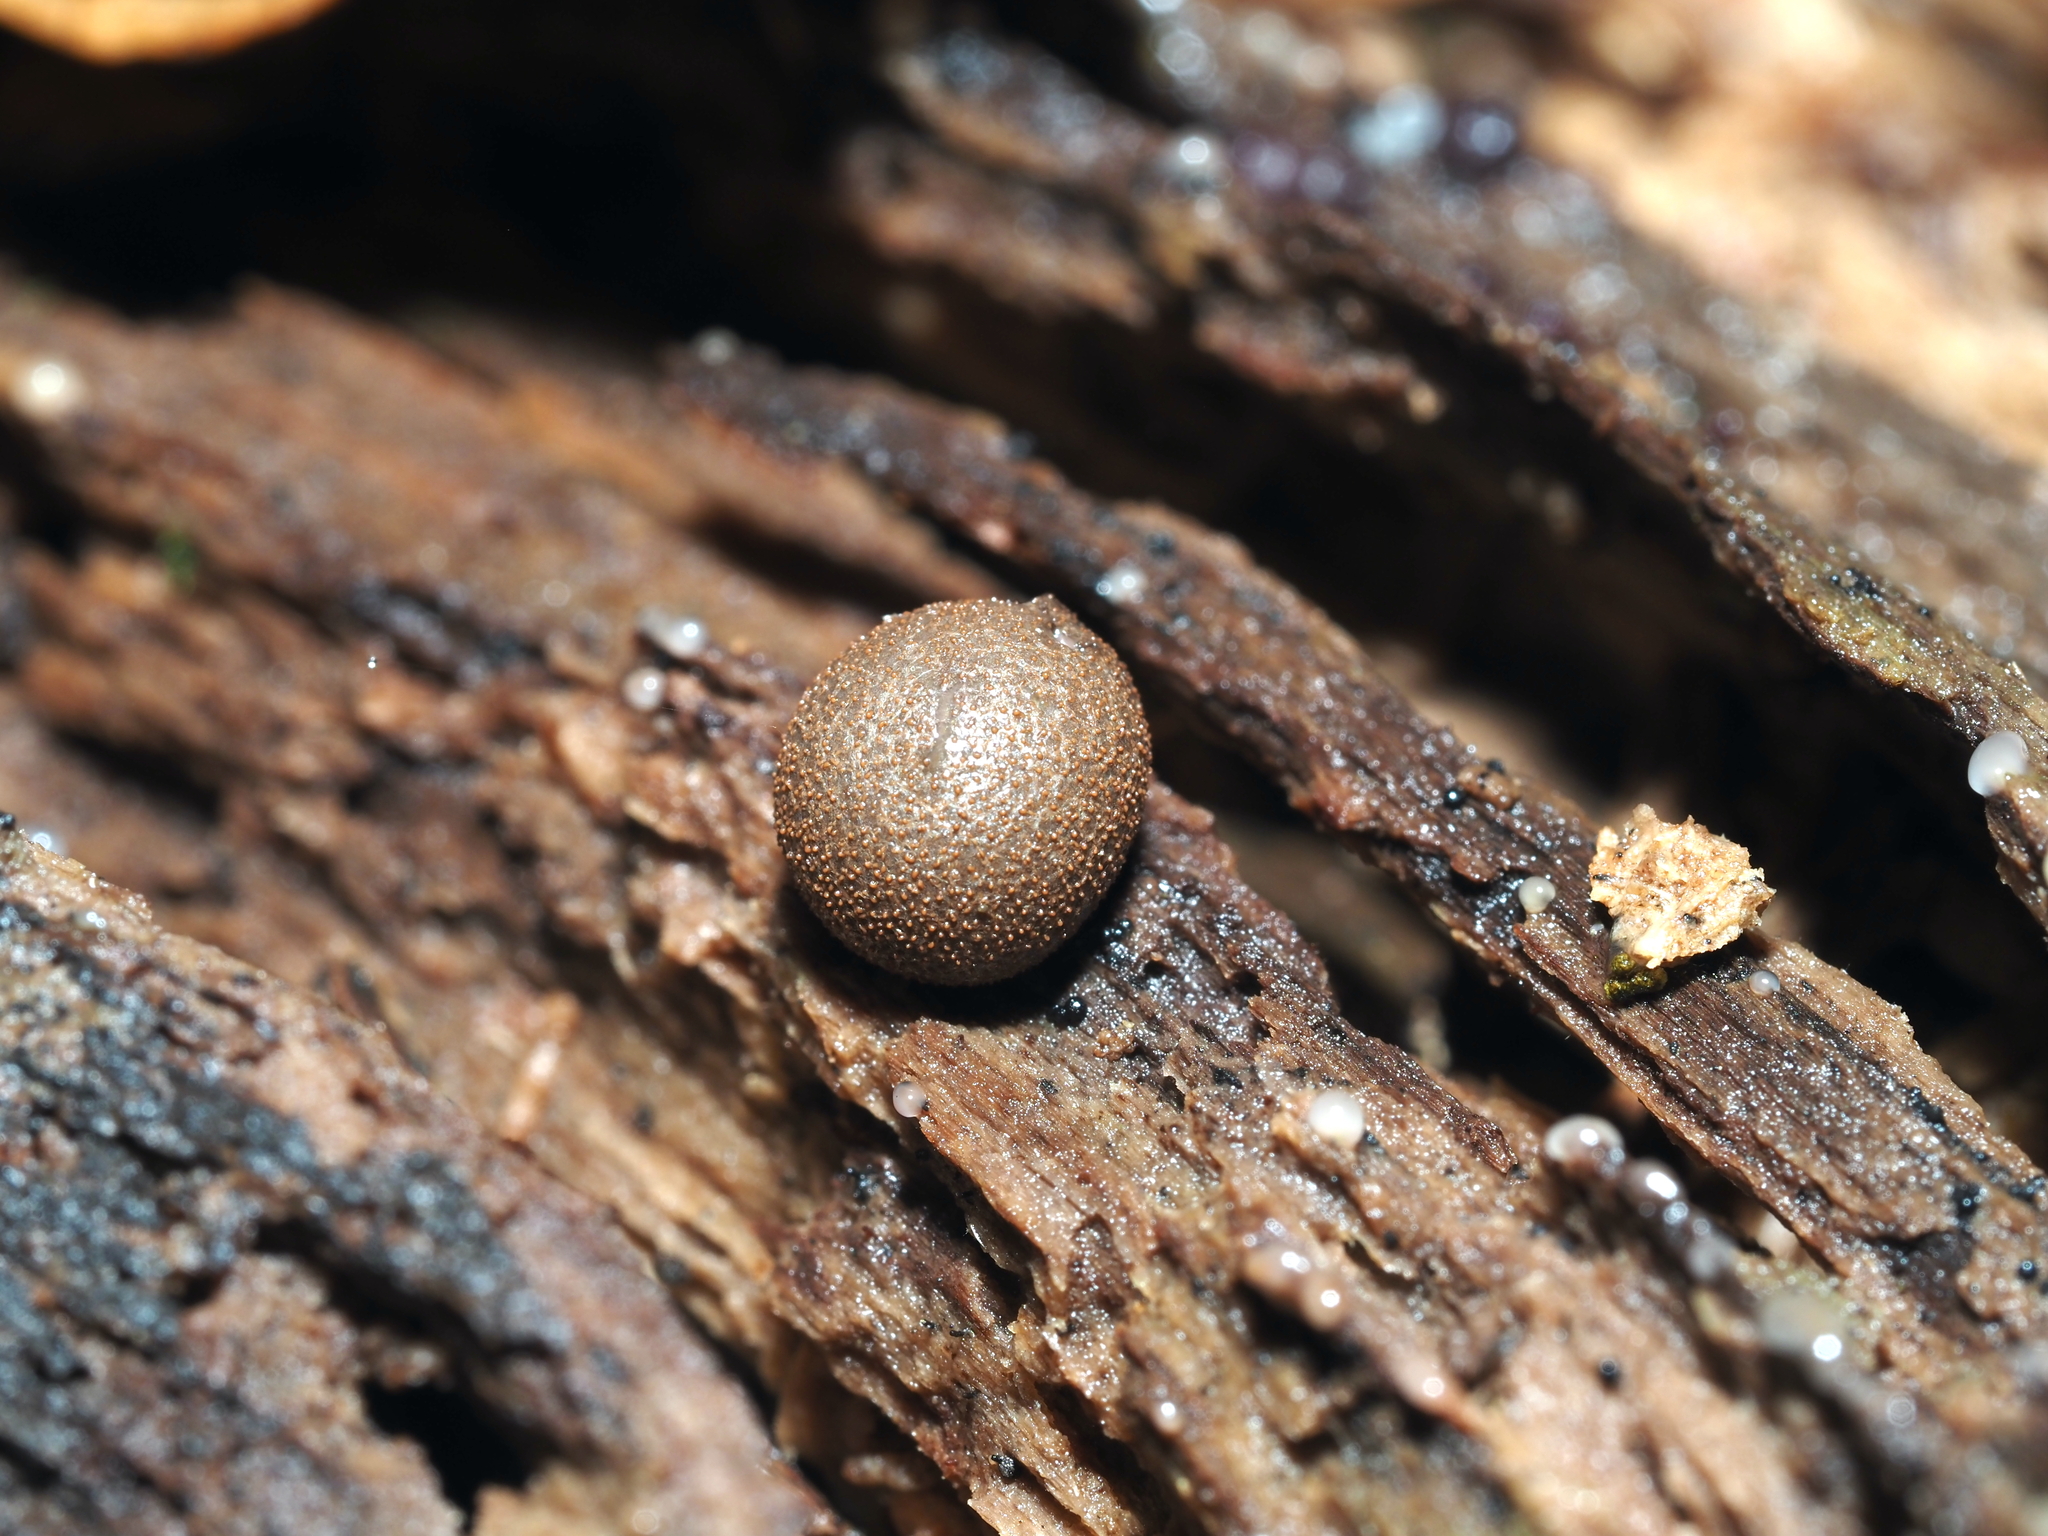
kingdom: Protozoa
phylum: Mycetozoa
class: Myxomycetes
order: Cribrariales
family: Tubiferaceae
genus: Lycogala
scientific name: Lycogala epidendrum
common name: Wolf's milk
